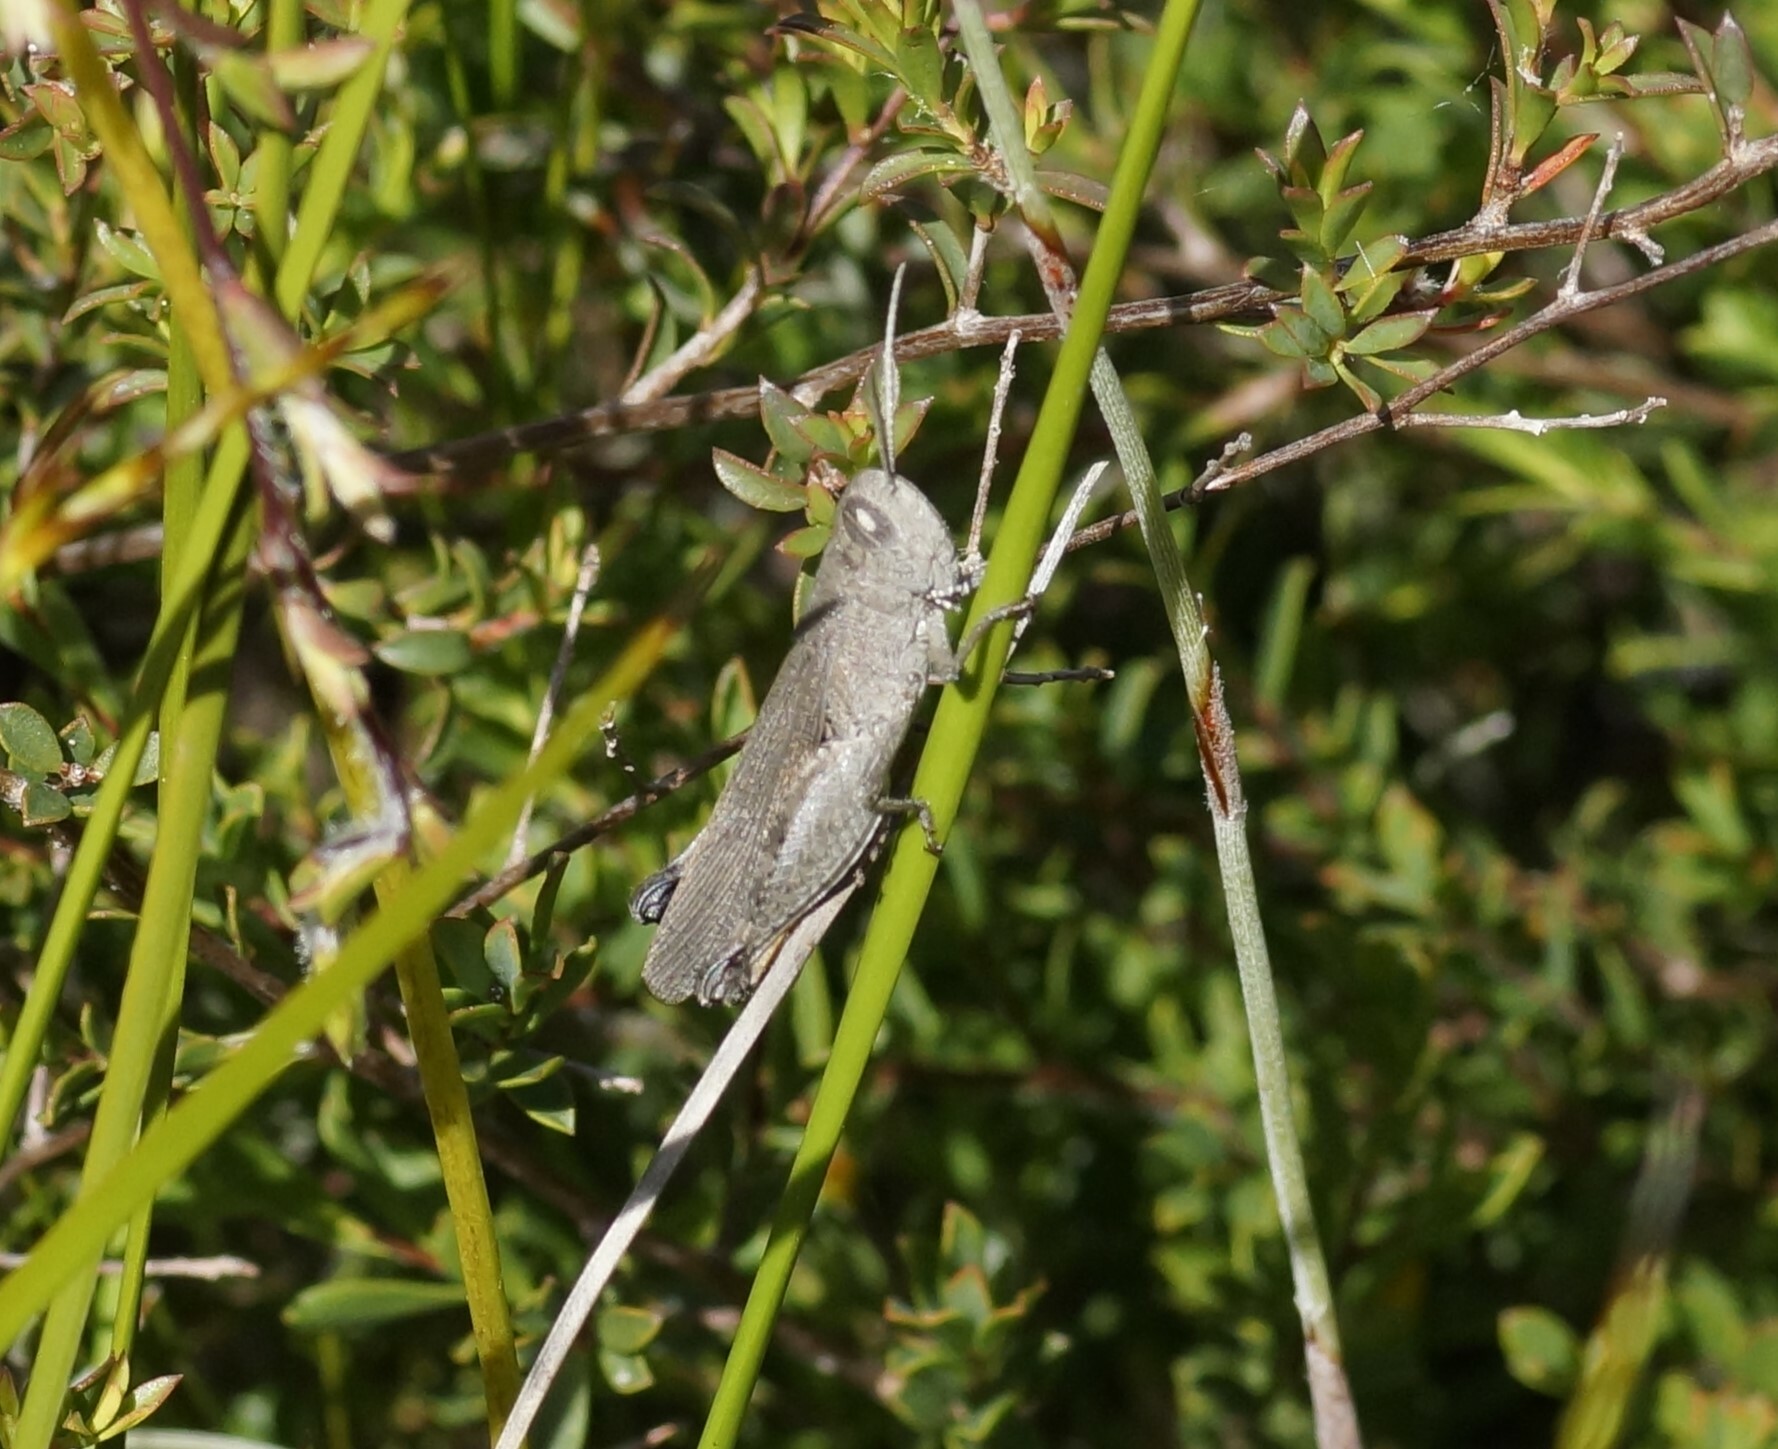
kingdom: Animalia
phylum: Arthropoda
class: Insecta
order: Orthoptera
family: Acrididae
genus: Goniaea
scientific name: Goniaea opomaloides
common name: Mimetic gumleaf grasshopper
